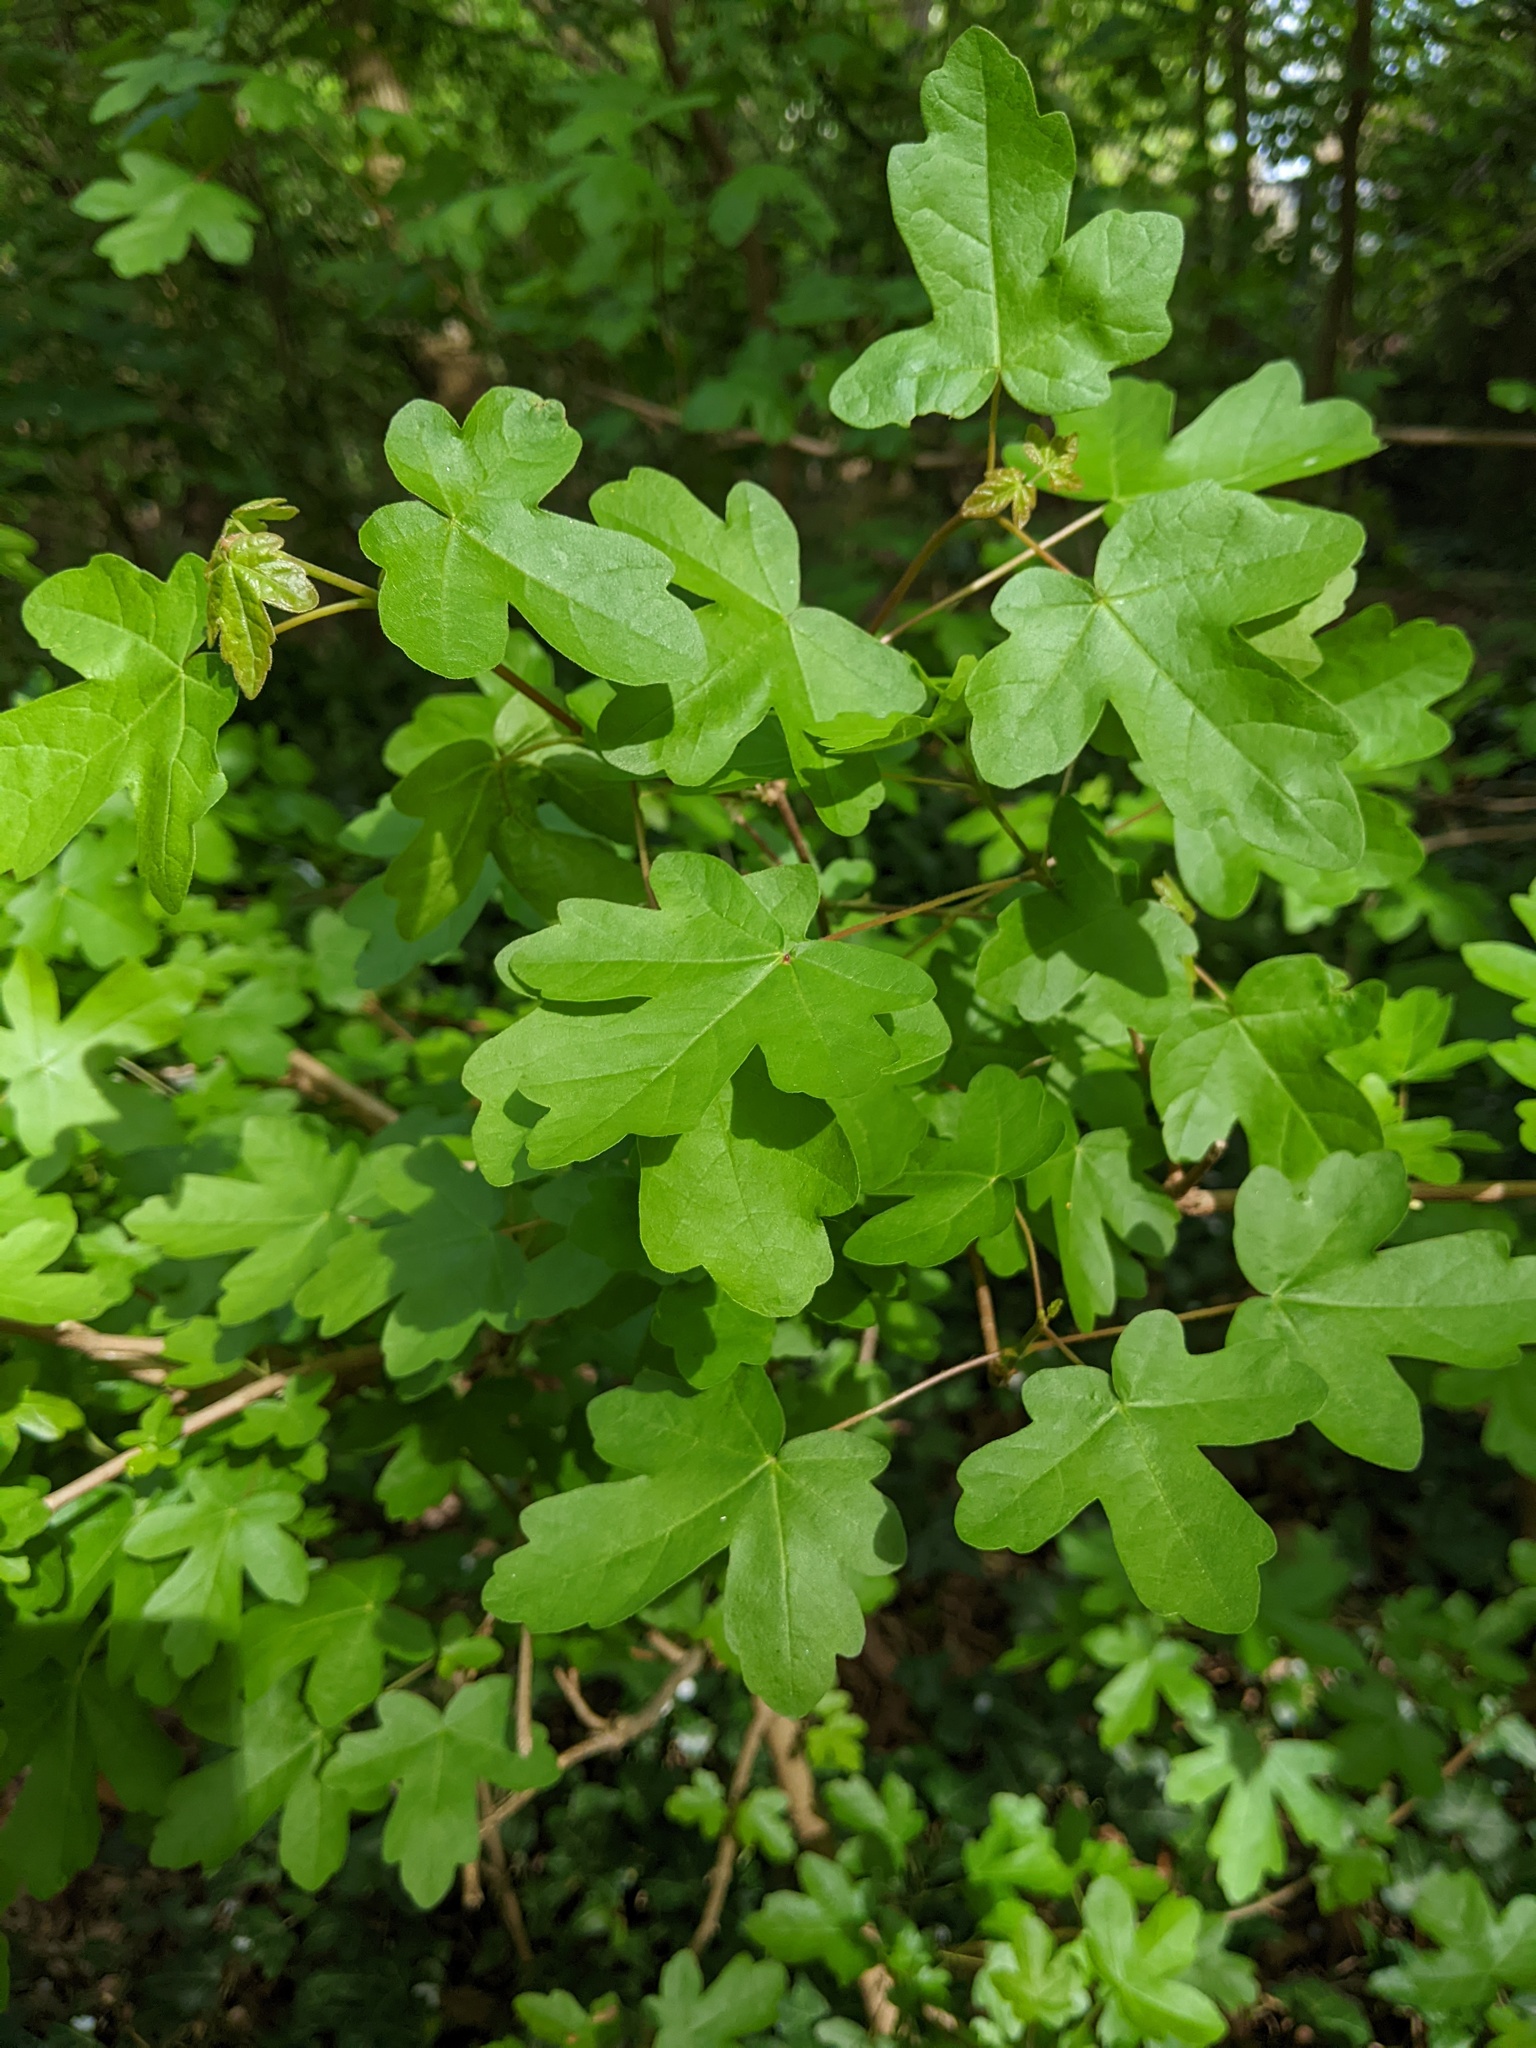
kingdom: Plantae
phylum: Tracheophyta
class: Magnoliopsida
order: Sapindales
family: Sapindaceae
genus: Acer
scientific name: Acer campestre
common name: Field maple
